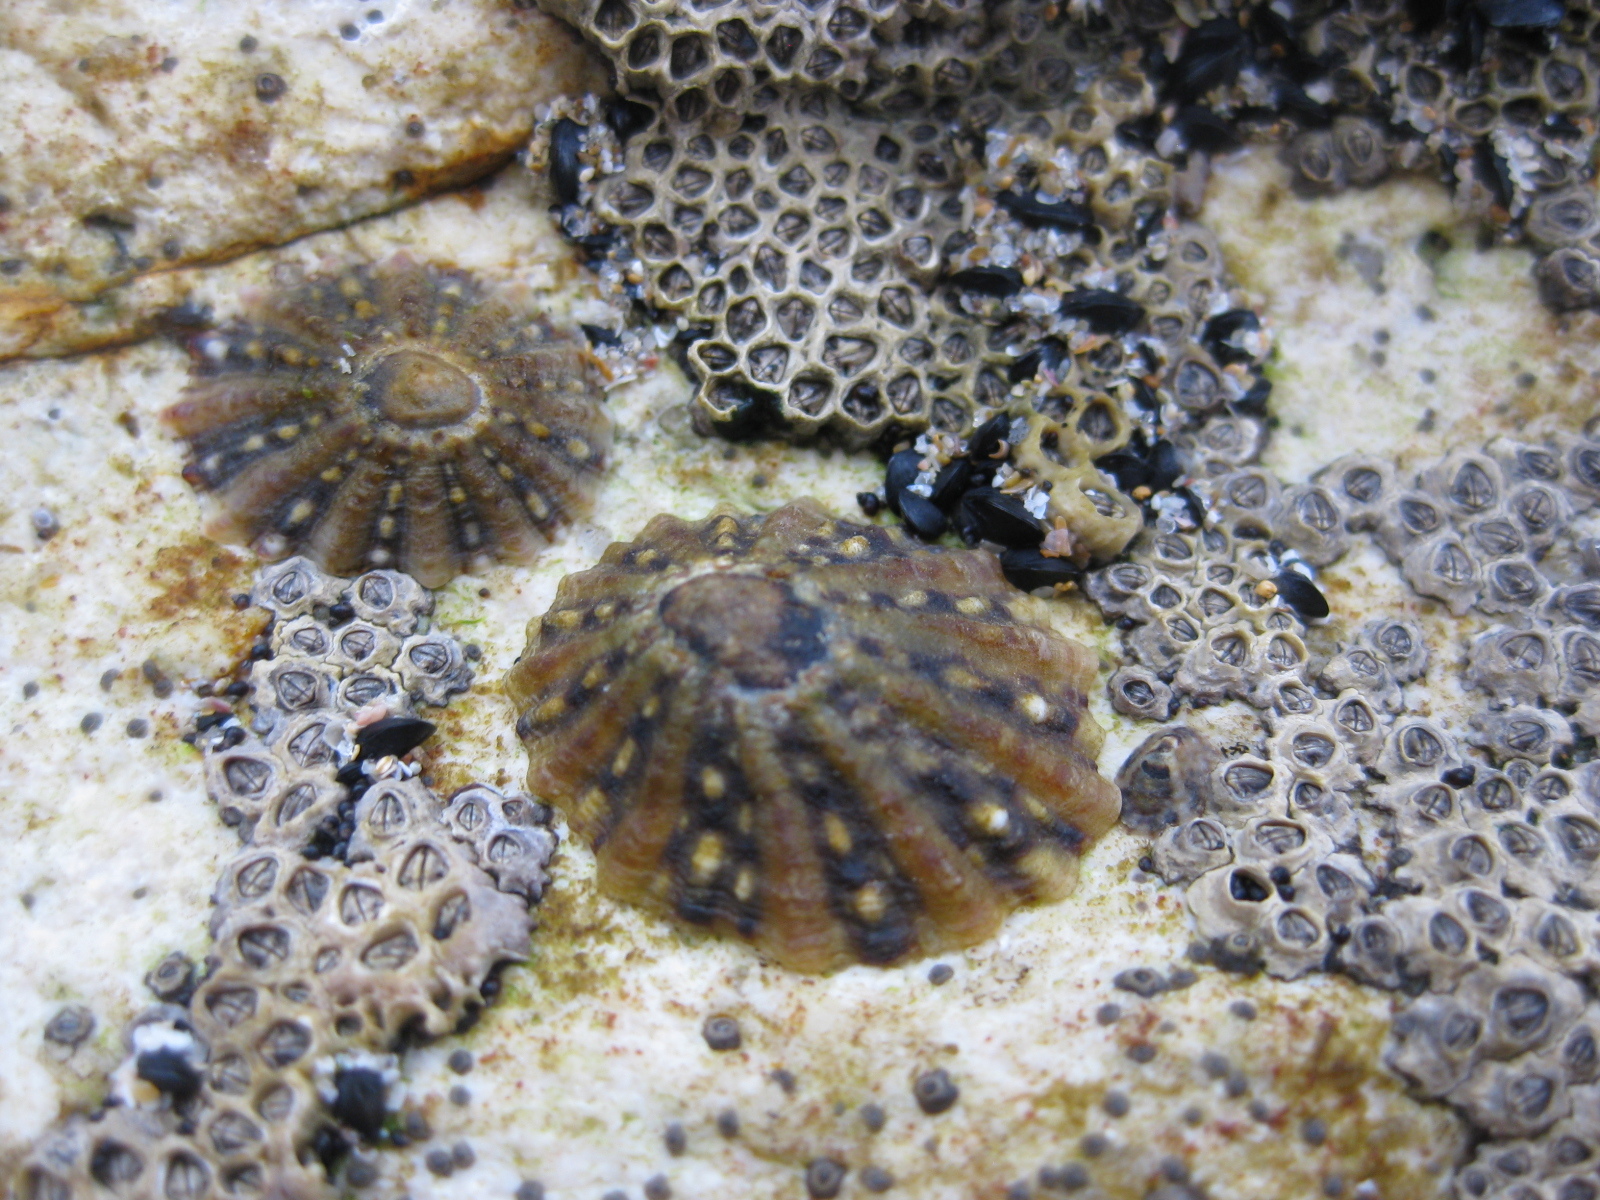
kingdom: Animalia
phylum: Mollusca
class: Gastropoda
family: Nacellidae
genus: Cellana
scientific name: Cellana ornata
